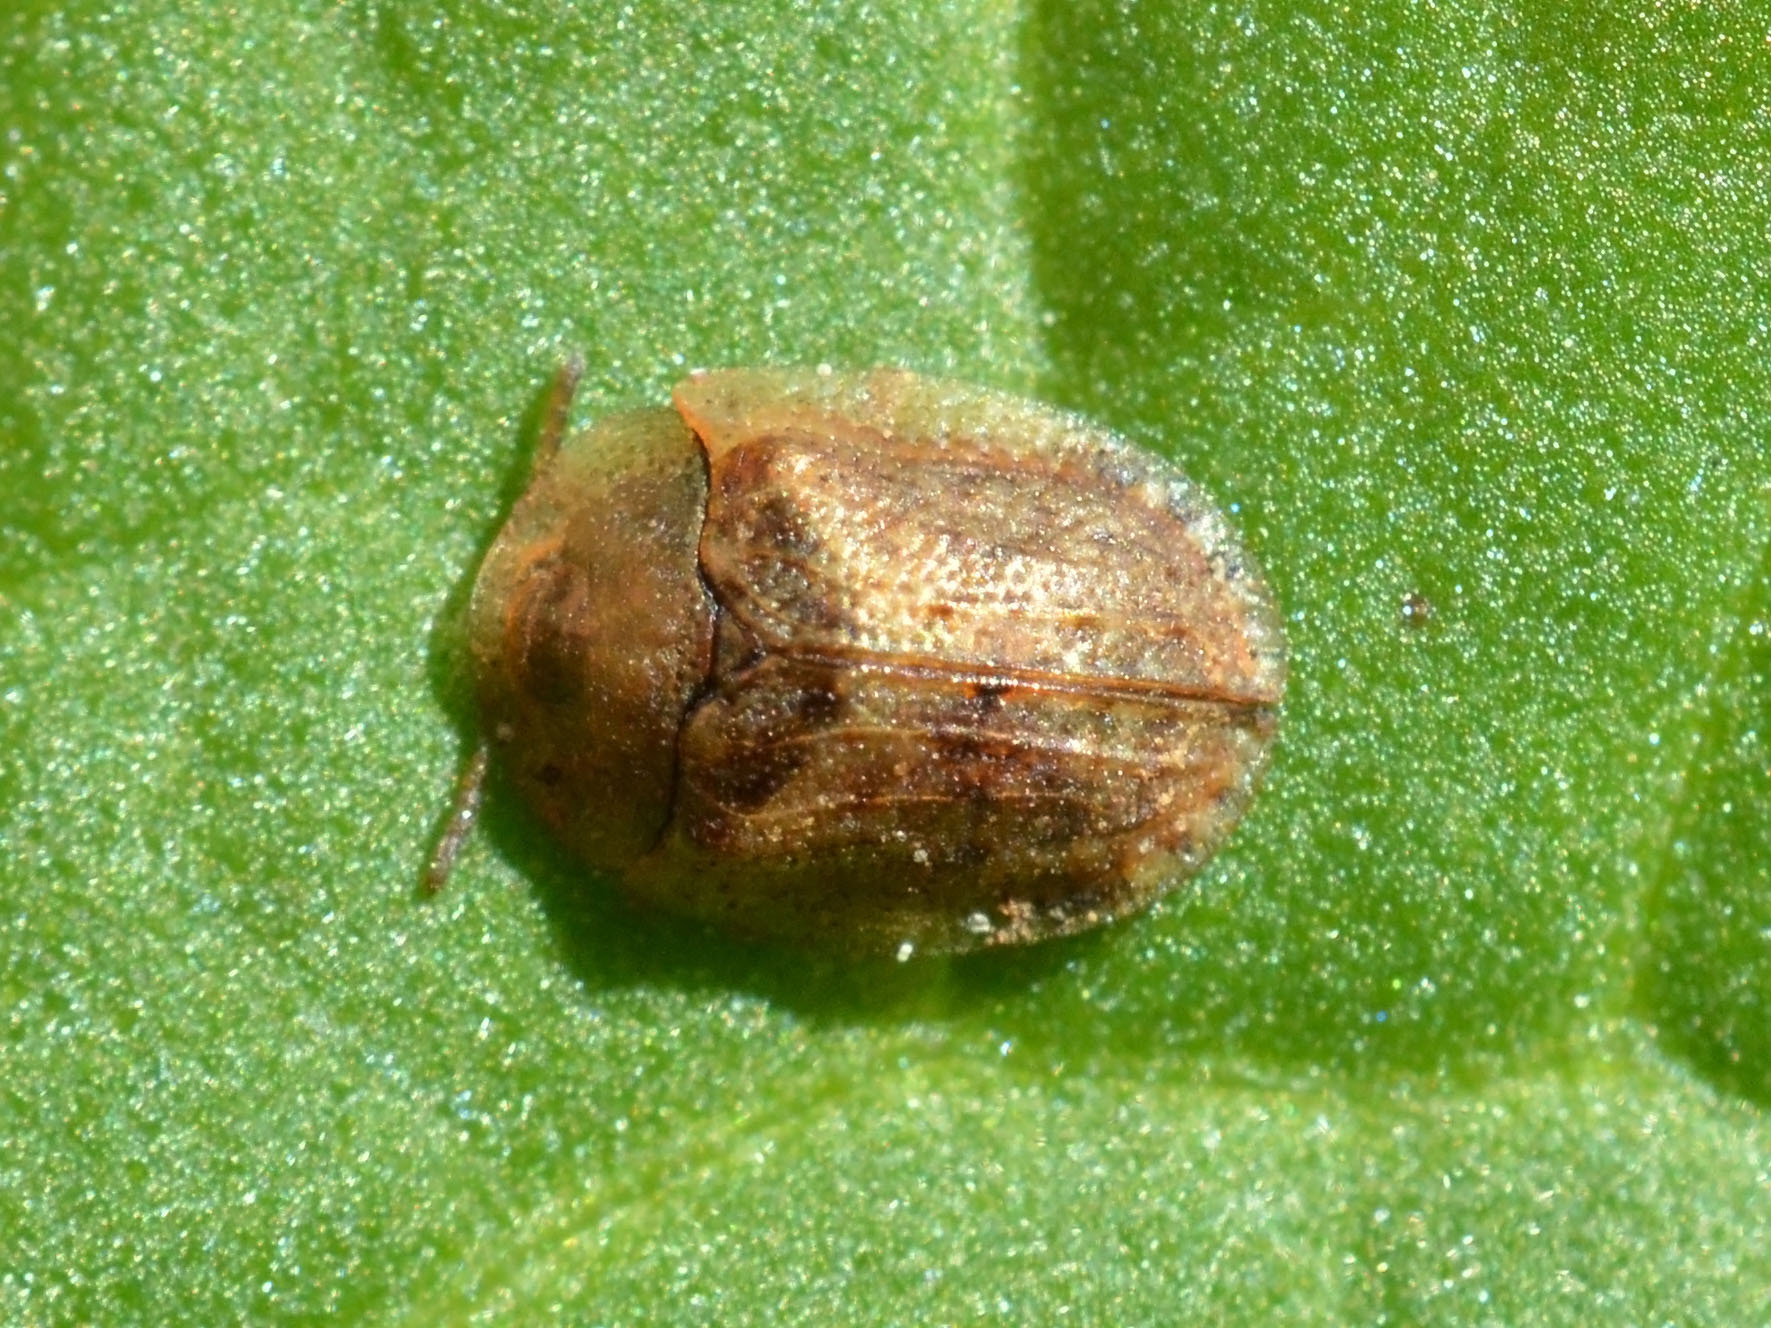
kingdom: Animalia
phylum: Arthropoda
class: Insecta
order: Coleoptera
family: Chrysomelidae
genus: Hypocassida
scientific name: Hypocassida subferruginea
